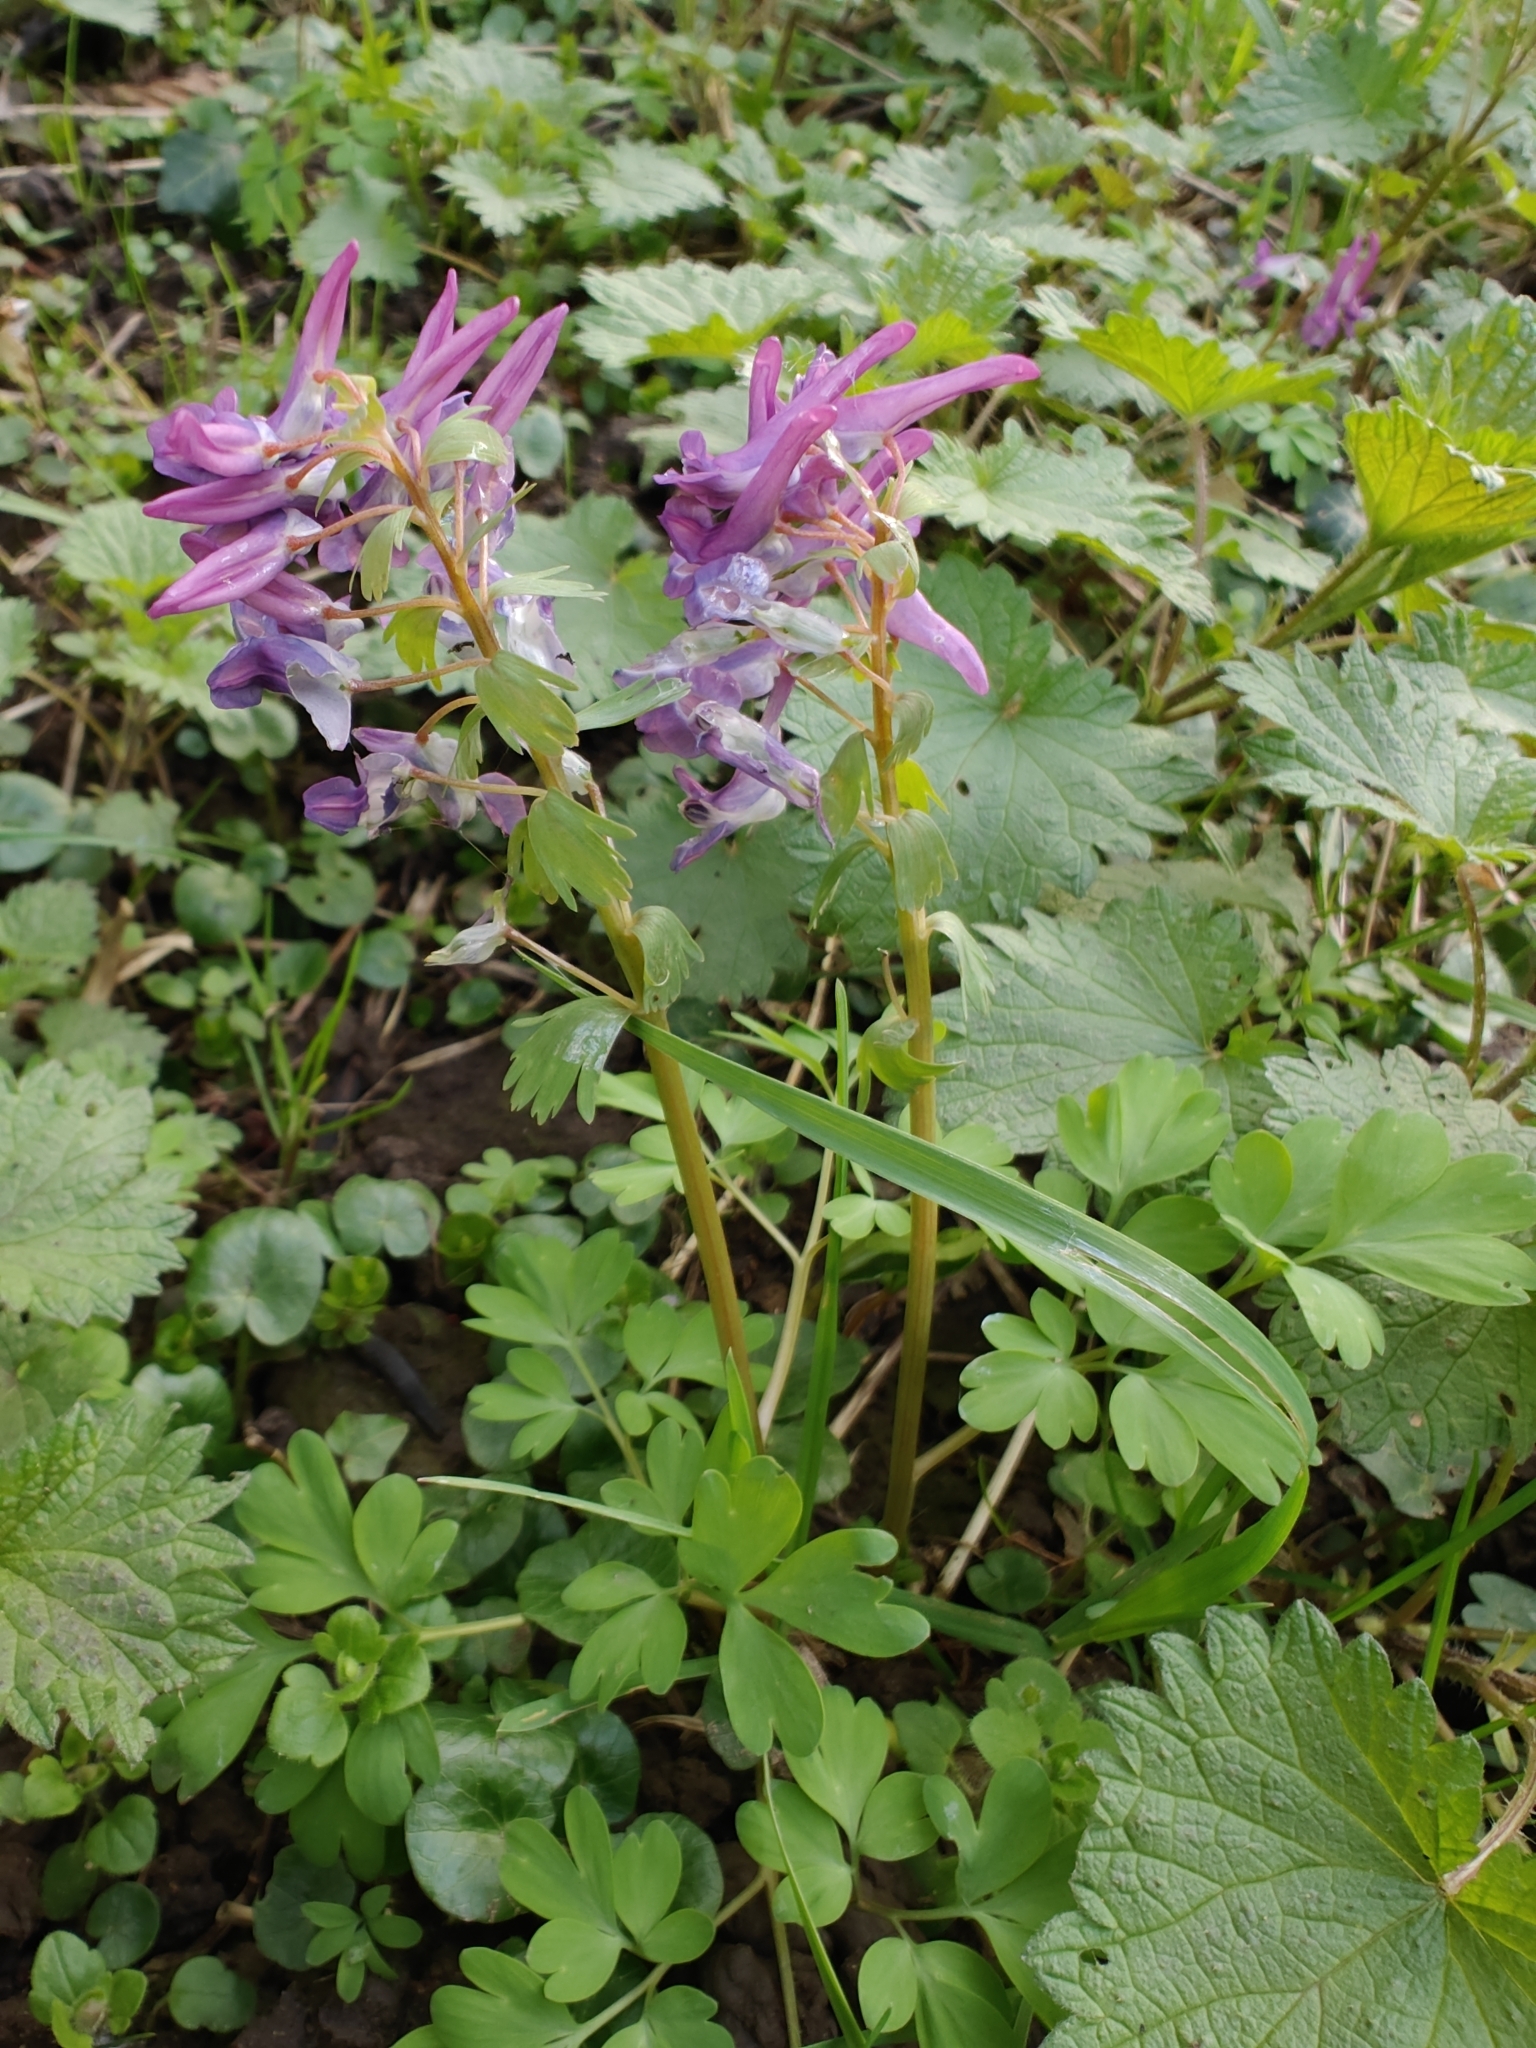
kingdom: Plantae
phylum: Tracheophyta
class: Magnoliopsida
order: Ranunculales
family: Papaveraceae
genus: Corydalis
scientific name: Corydalis solida
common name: Bird-in-a-bush
